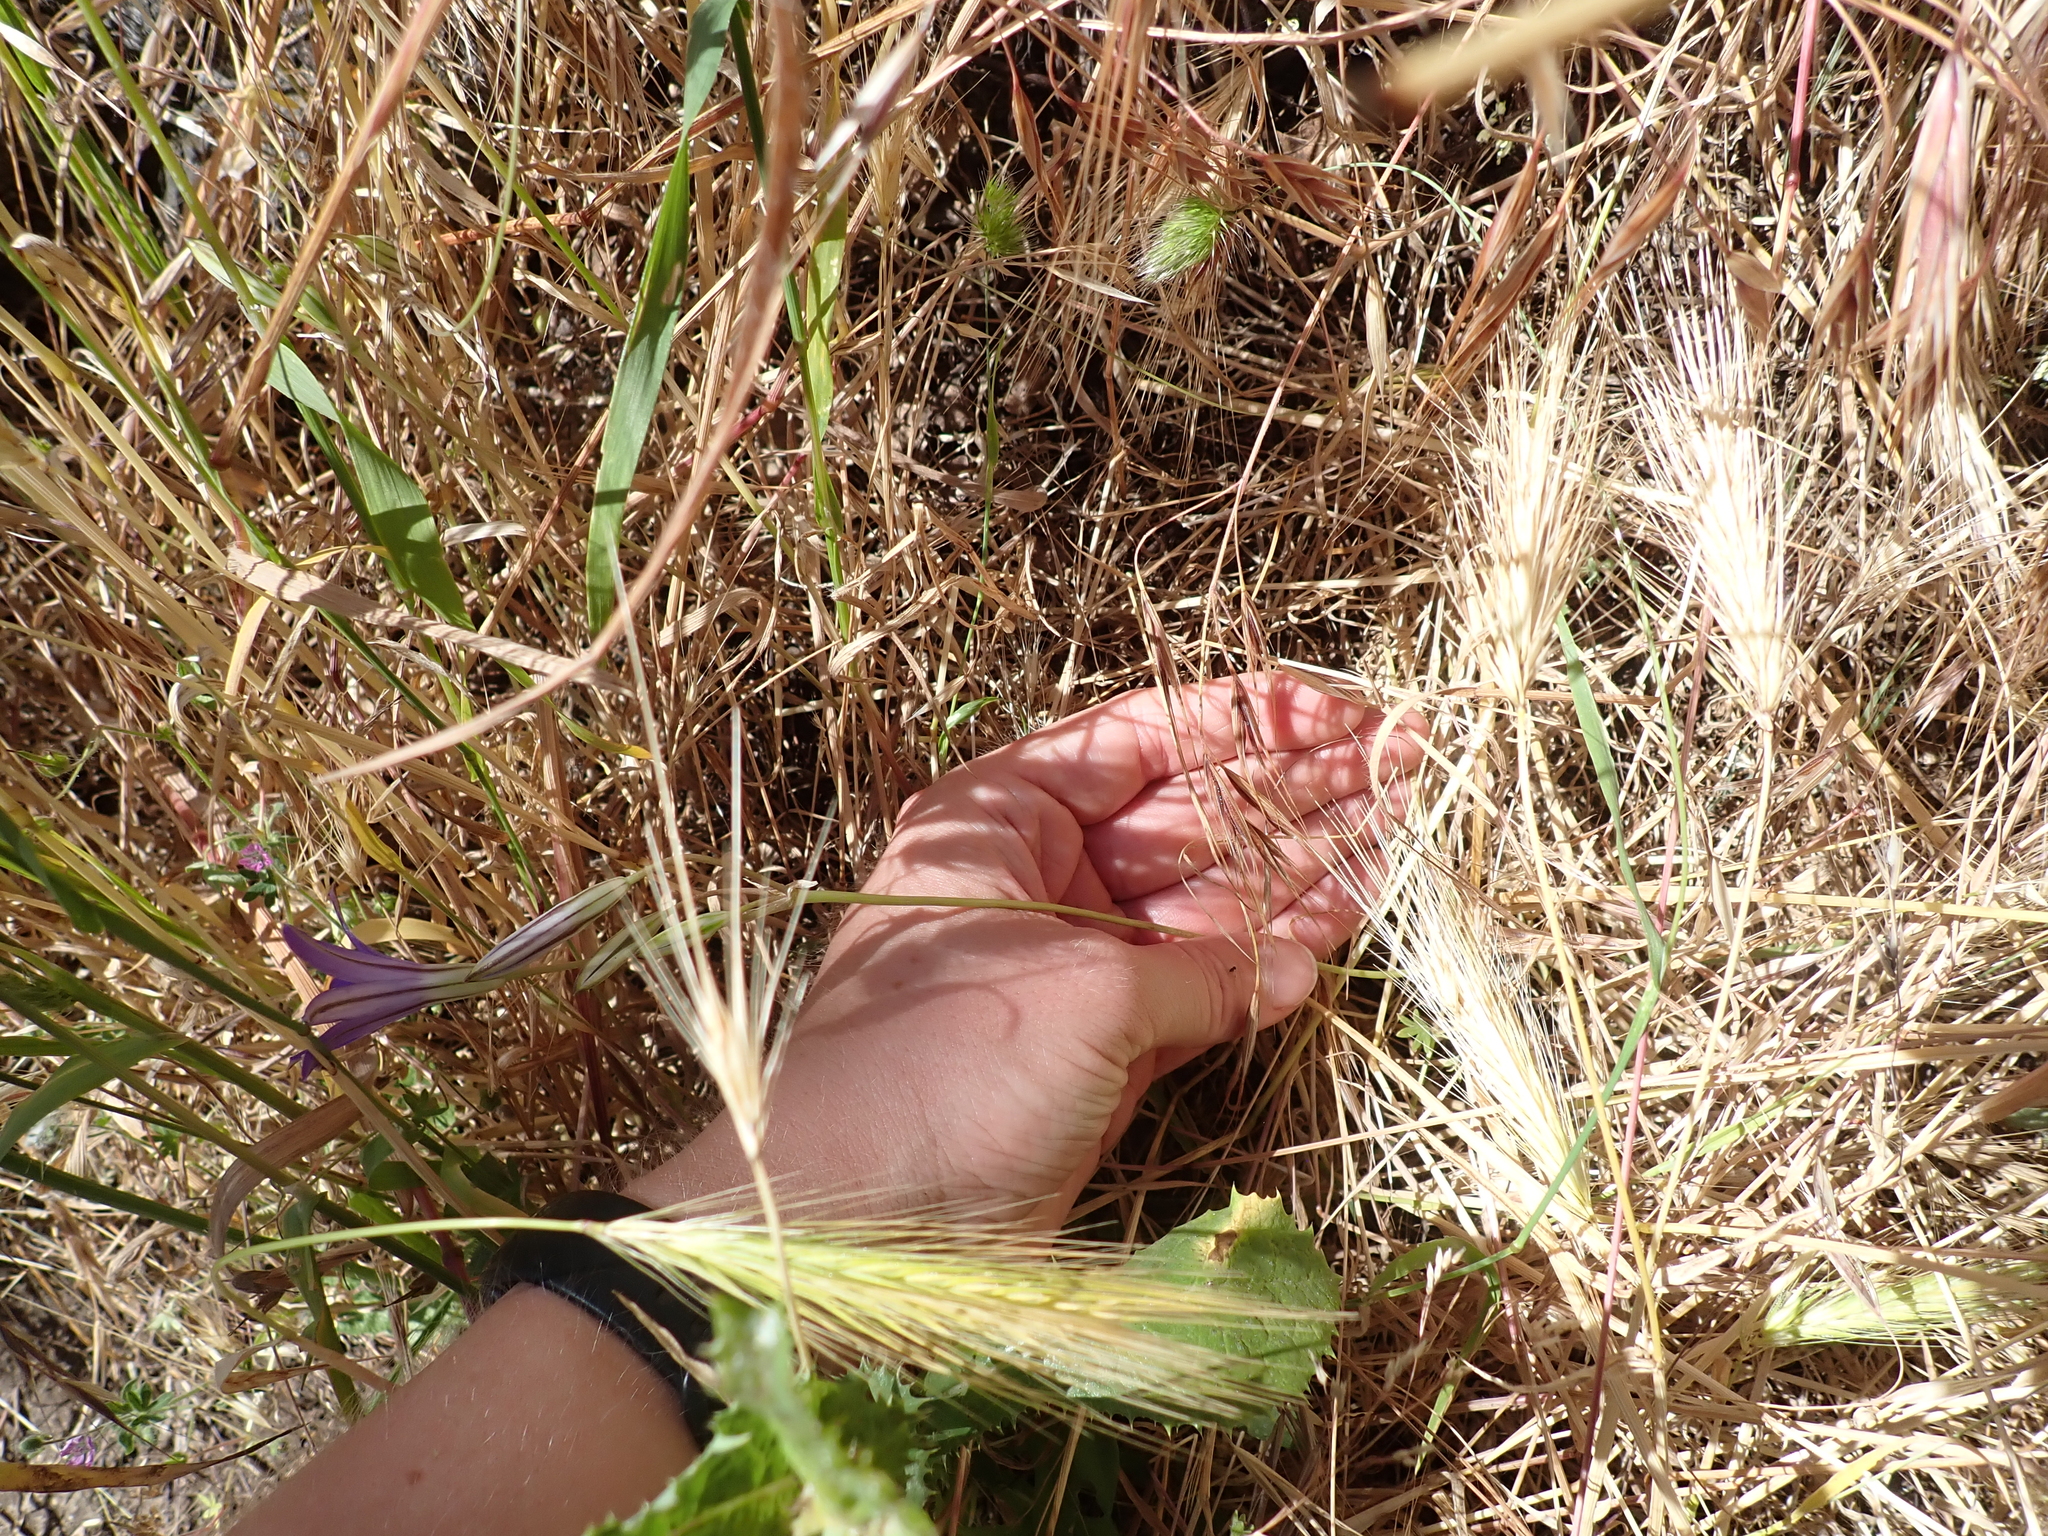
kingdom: Plantae
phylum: Tracheophyta
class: Liliopsida
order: Asparagales
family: Asparagaceae
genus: Brodiaea
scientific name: Brodiaea coronaria
